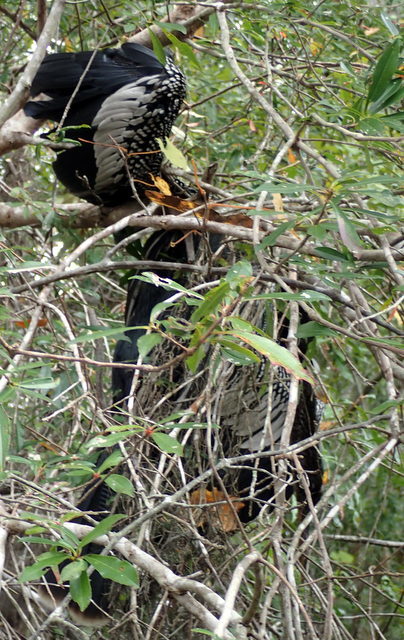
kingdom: Animalia
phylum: Chordata
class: Aves
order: Suliformes
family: Anhingidae
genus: Anhinga
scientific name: Anhinga anhinga
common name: Anhinga
